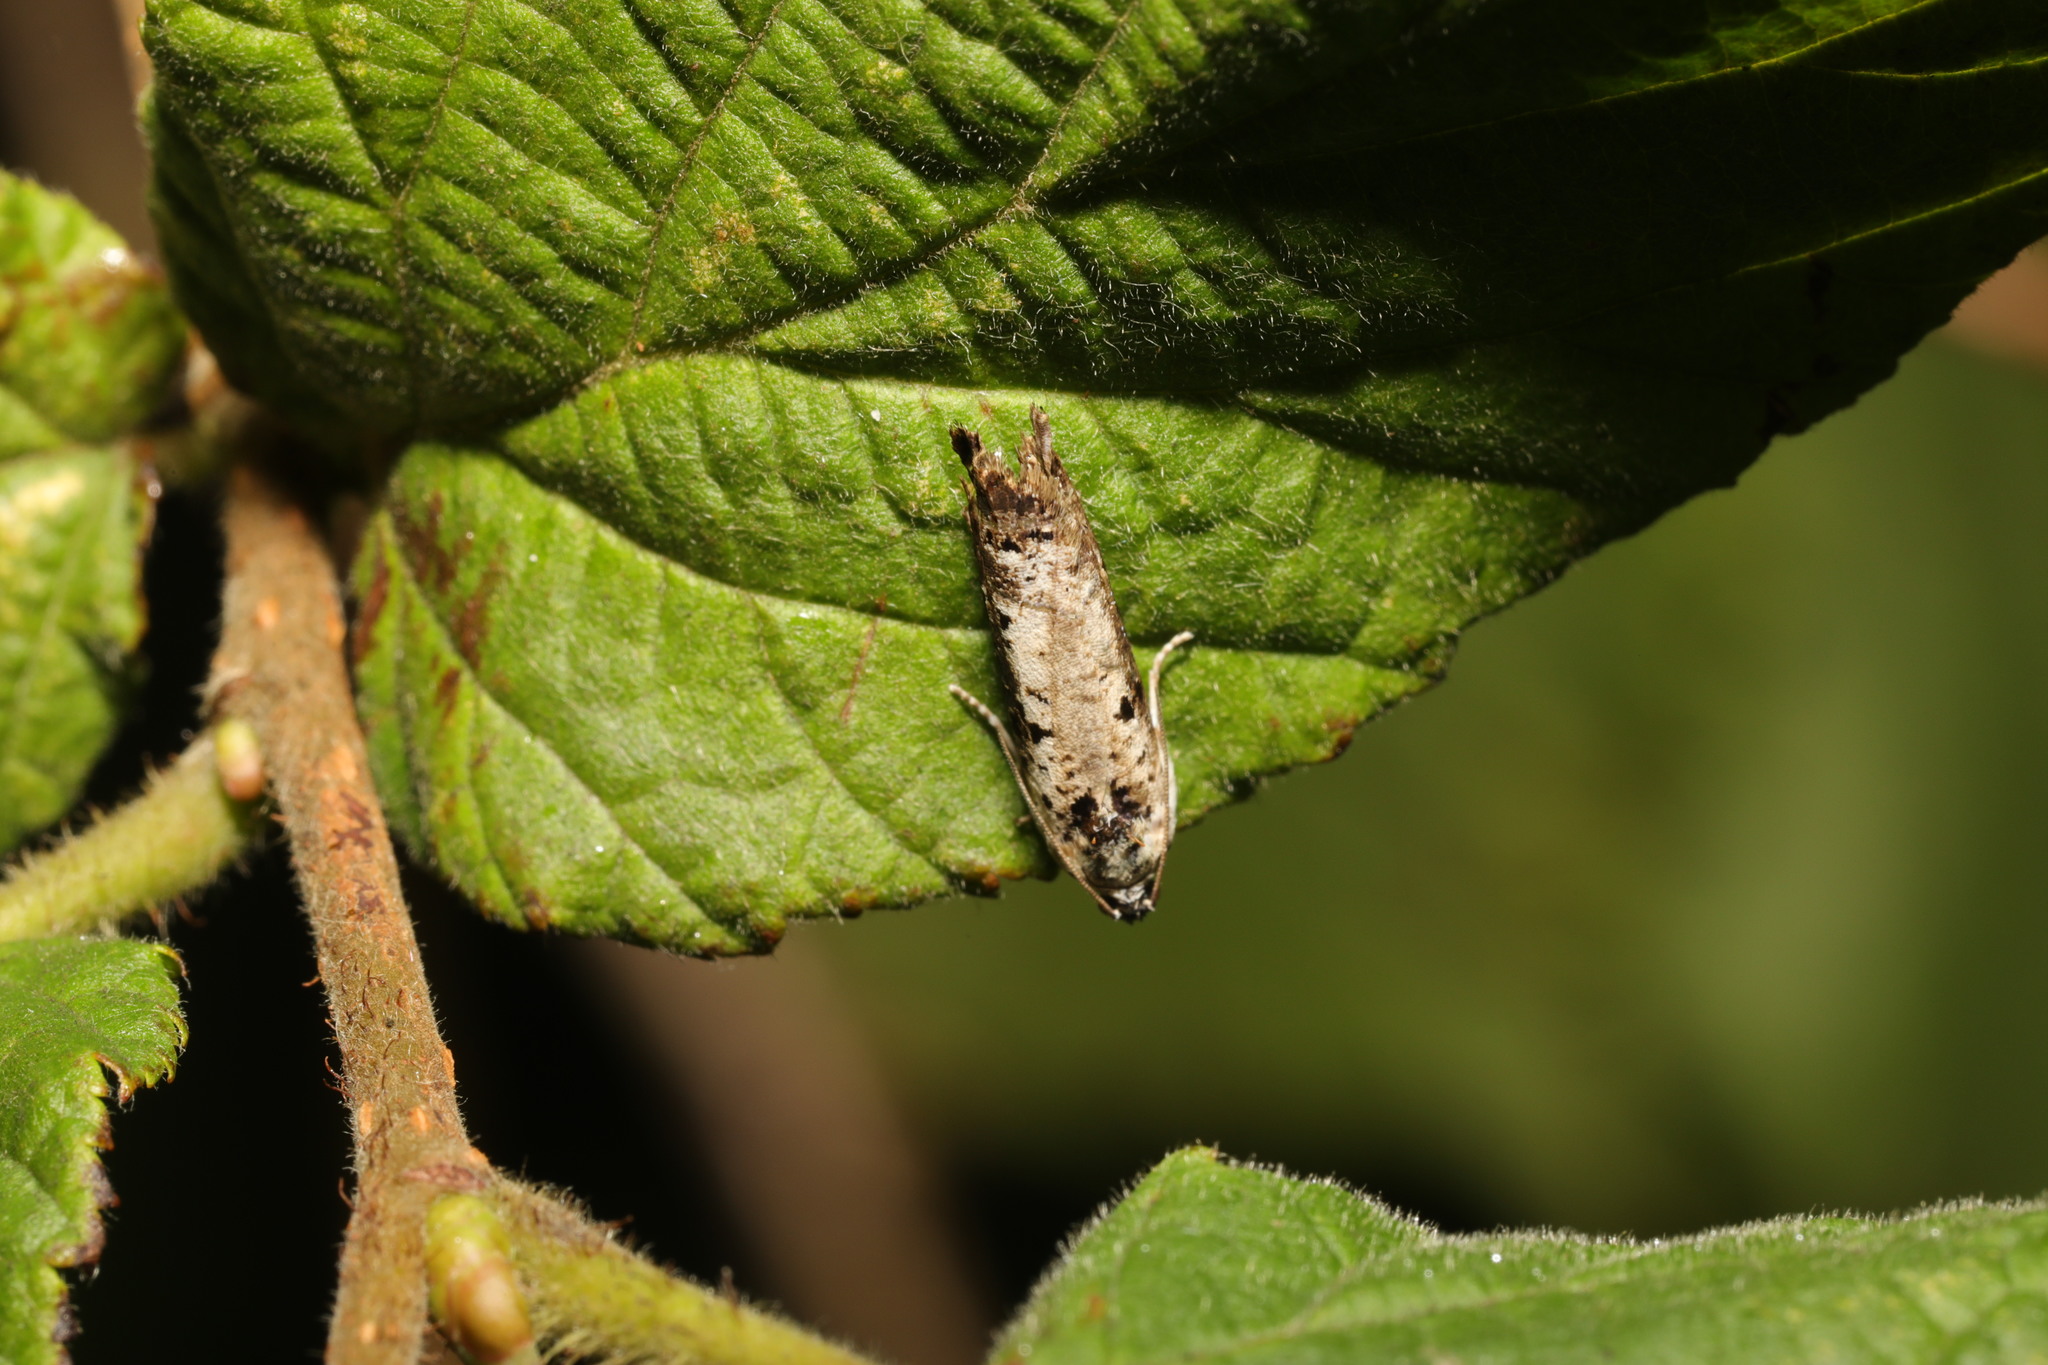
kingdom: Animalia
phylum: Arthropoda
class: Insecta
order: Lepidoptera
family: Tortricidae
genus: Hedya
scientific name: Hedya salicella
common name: Large tortricid moth
